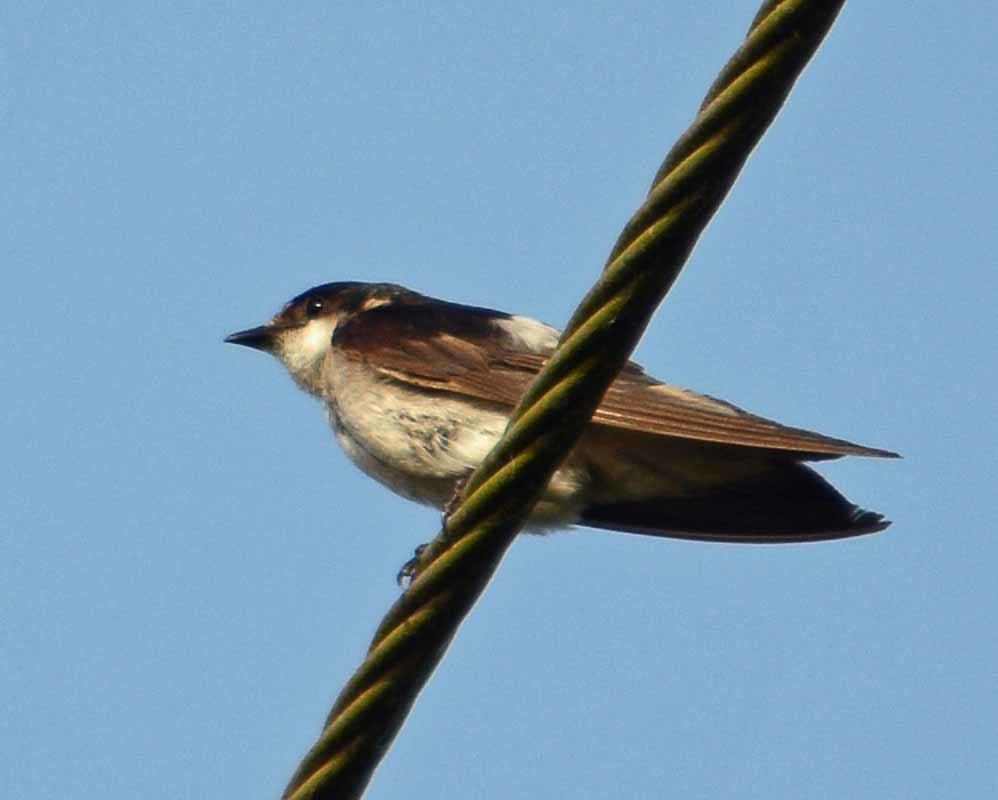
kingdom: Animalia
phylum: Chordata
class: Aves
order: Passeriformes
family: Hirundinidae
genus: Tachycineta
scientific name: Tachycineta albilinea
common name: Mangrove swallow
